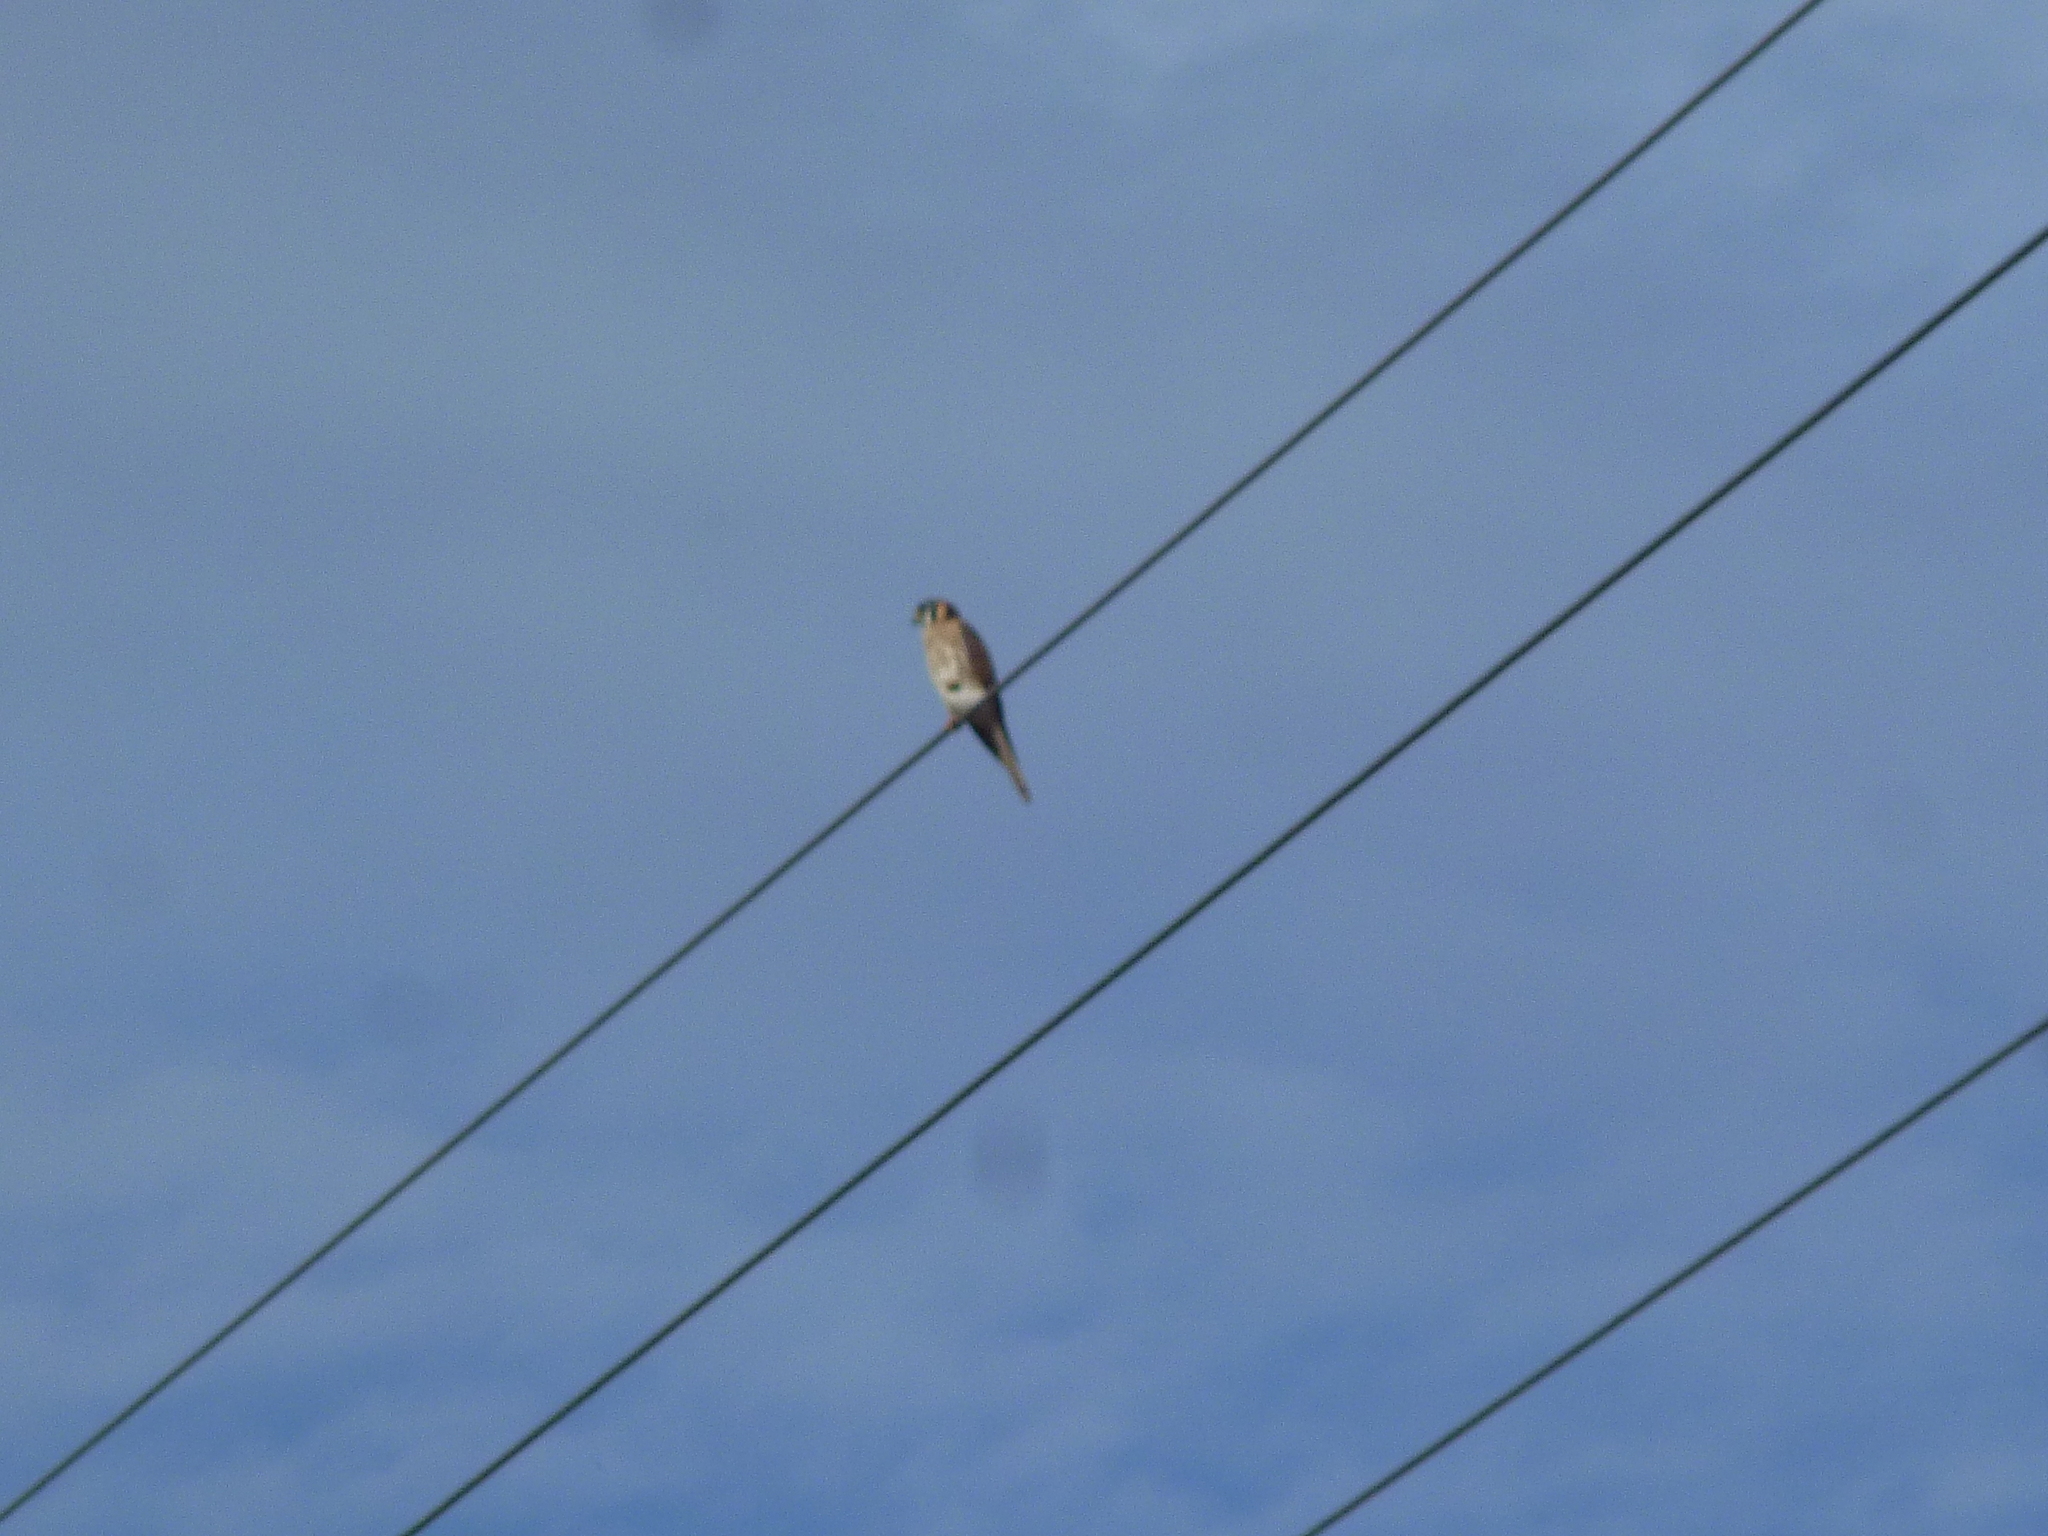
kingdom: Animalia
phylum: Chordata
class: Aves
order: Falconiformes
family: Falconidae
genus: Falco
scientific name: Falco sparverius
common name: American kestrel
